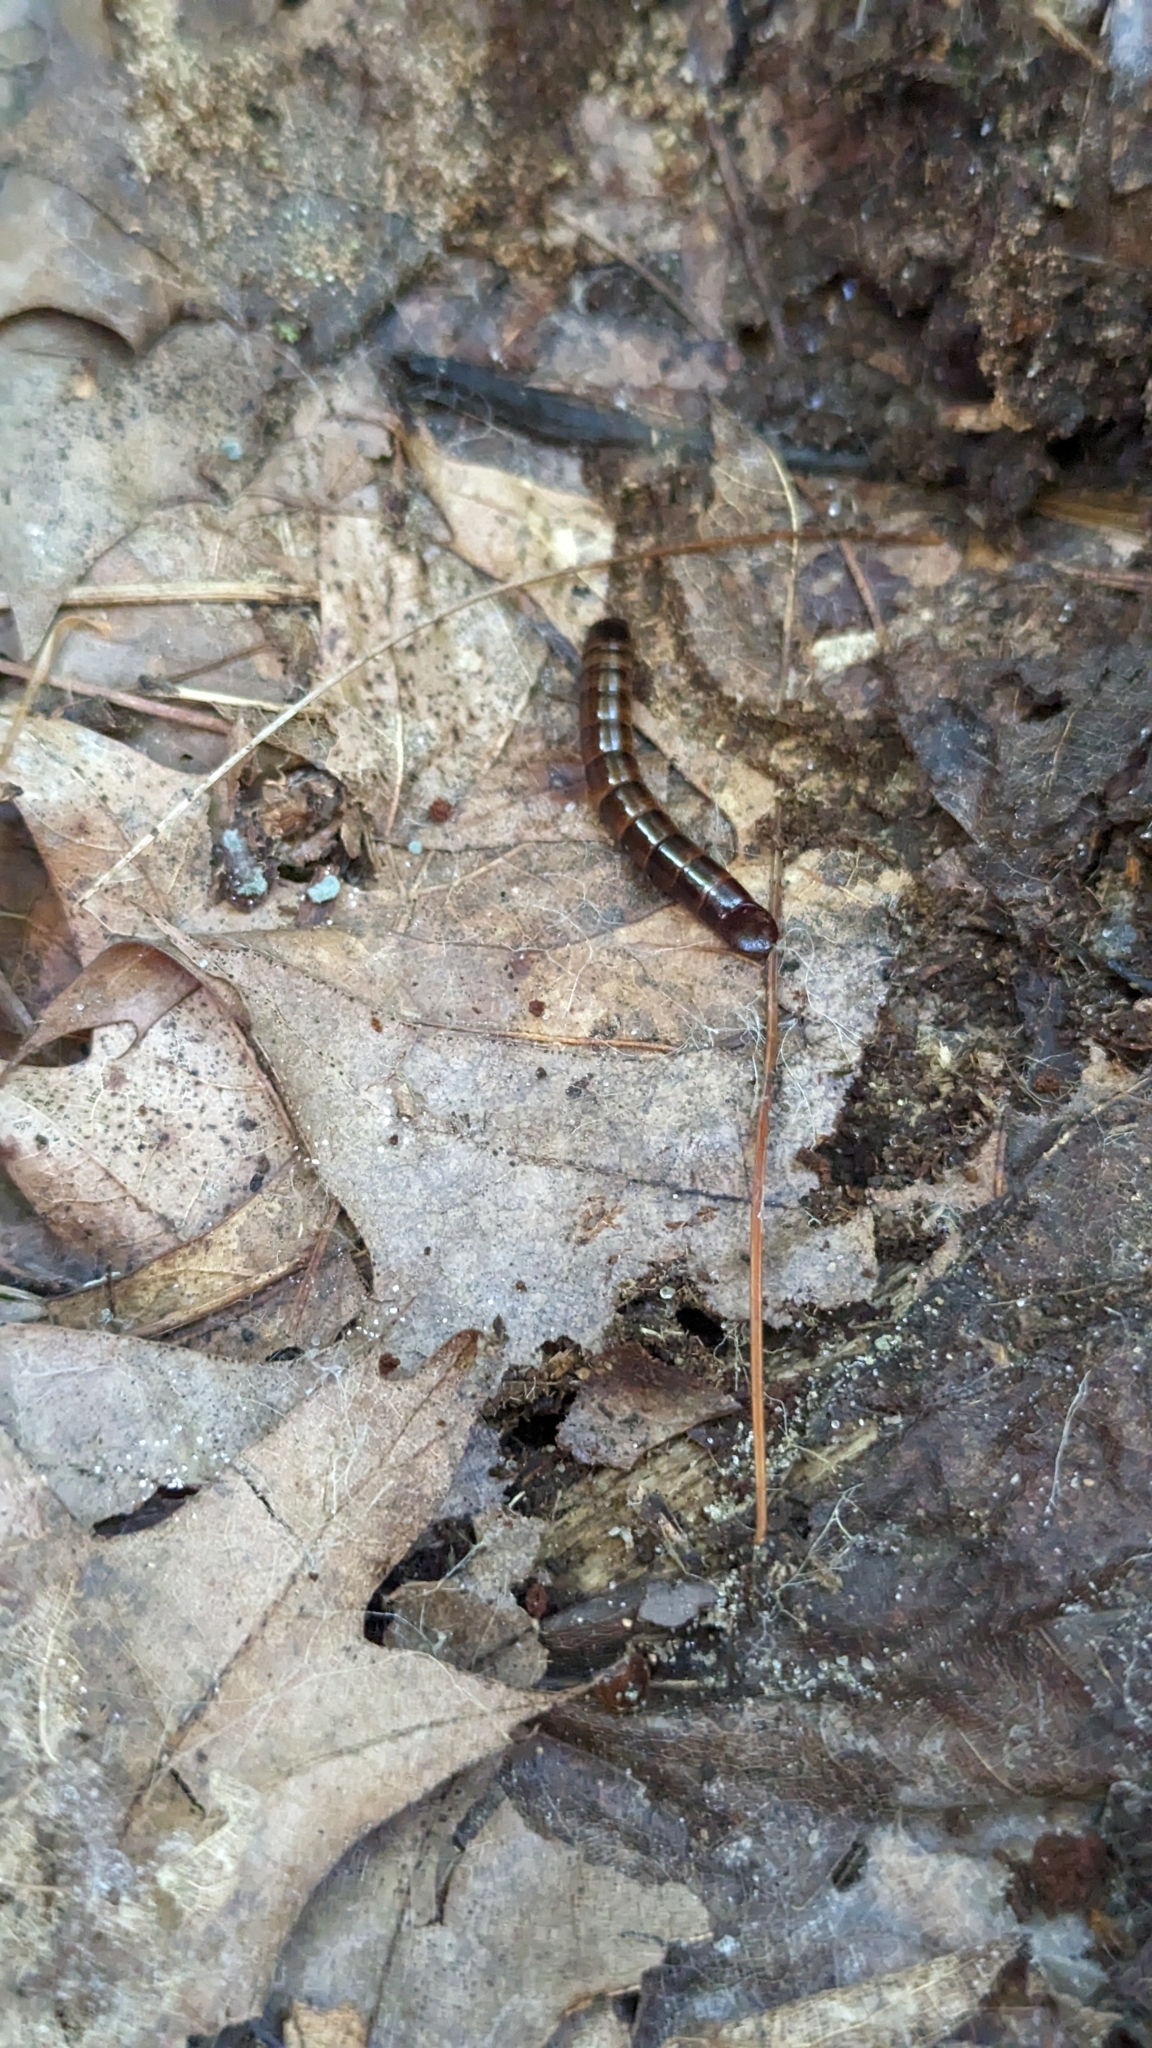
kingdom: Animalia
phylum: Arthropoda
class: Insecta
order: Coleoptera
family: Tenebrionidae
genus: Meracantha
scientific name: Meracantha contracta
